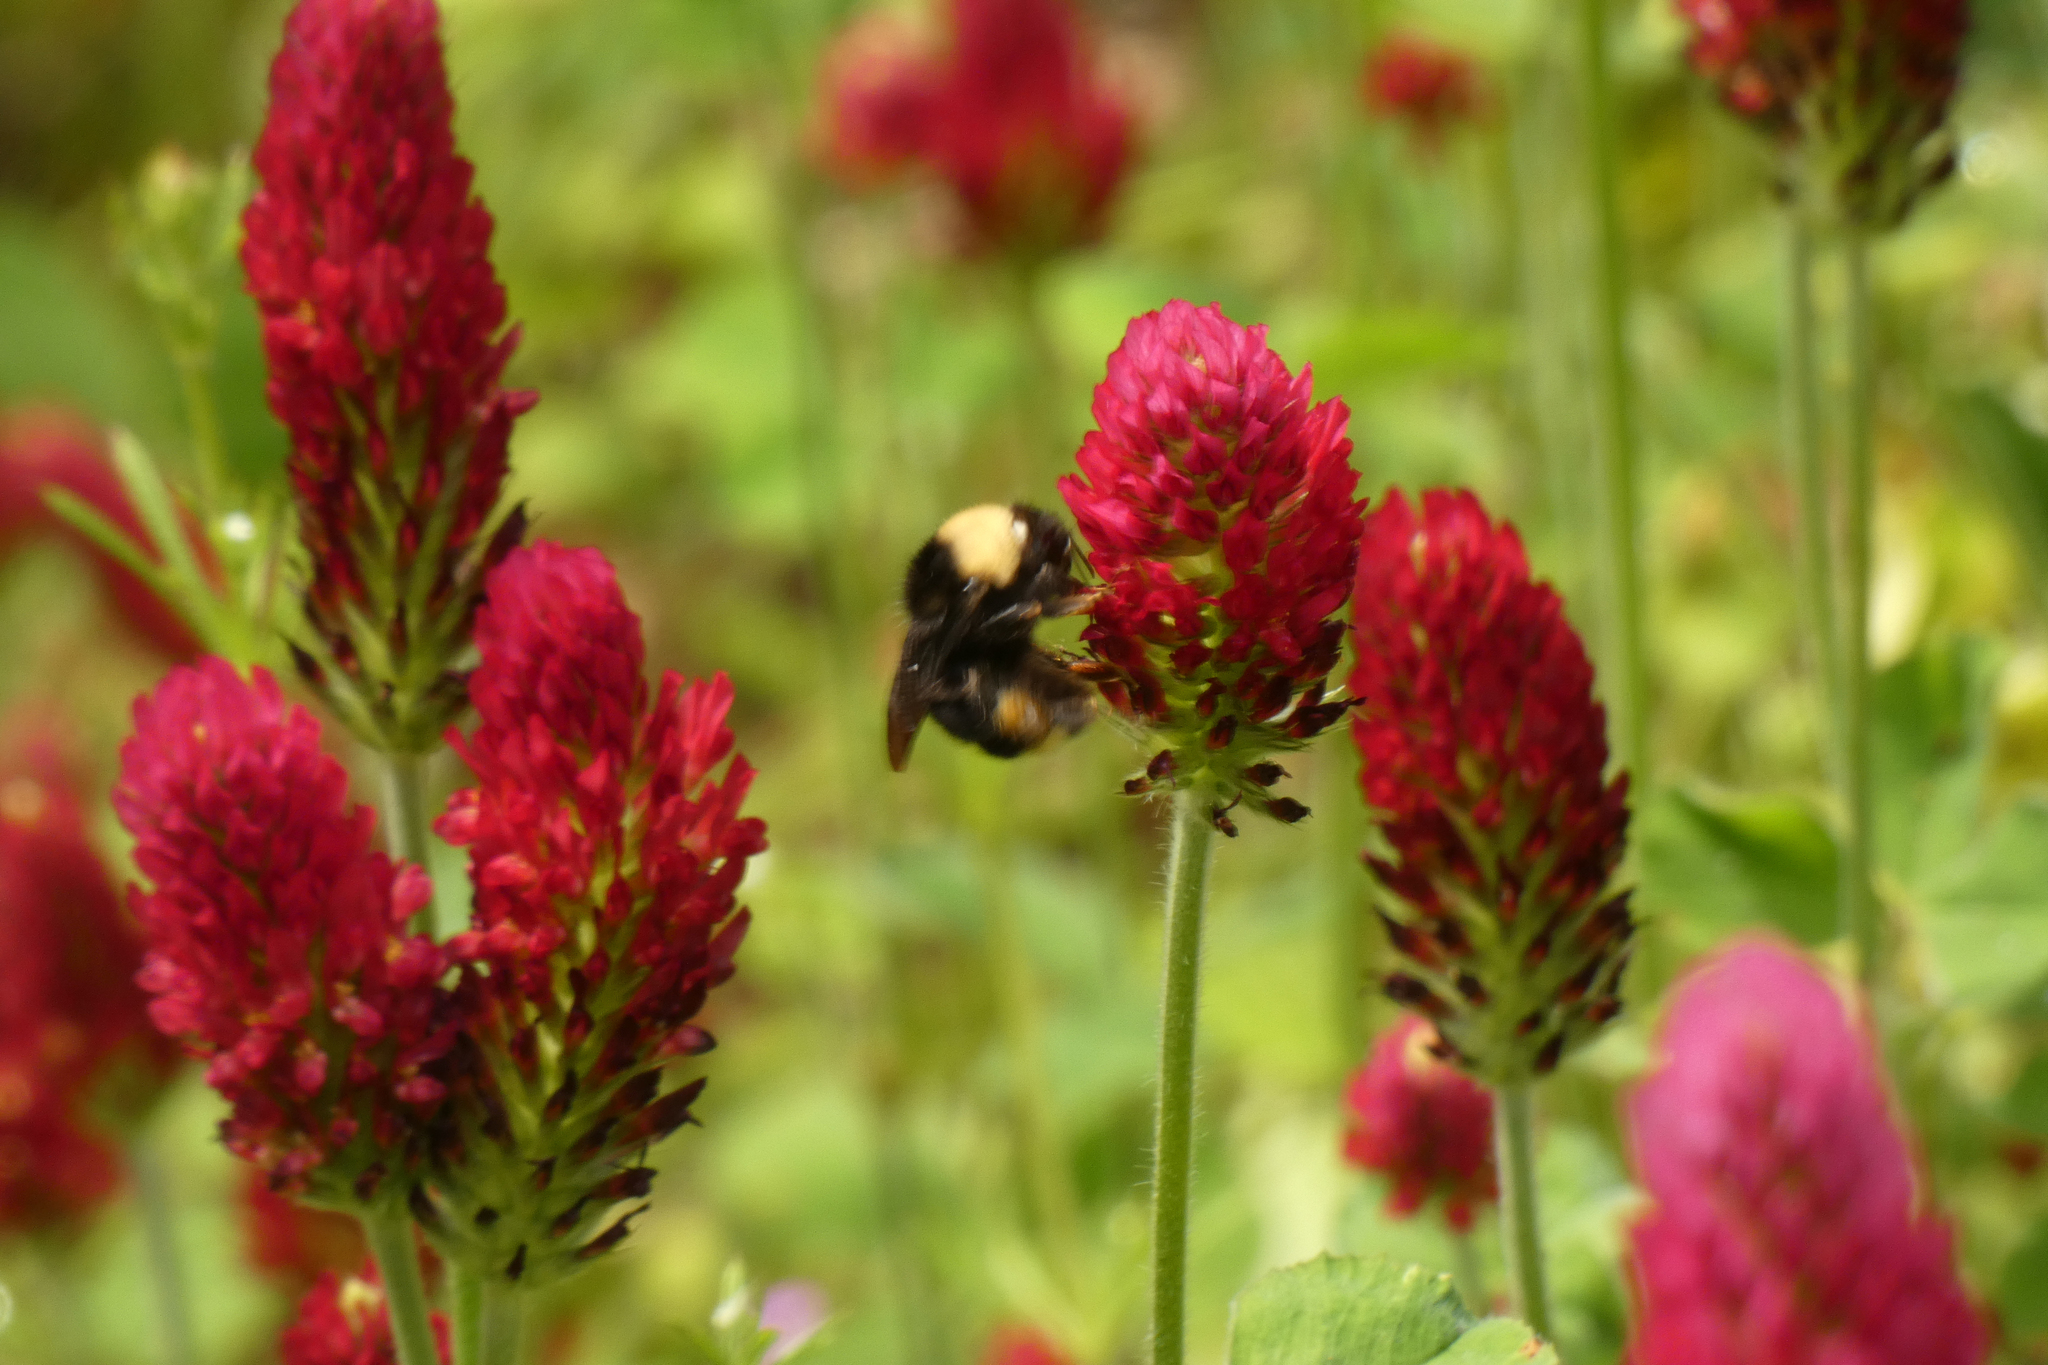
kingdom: Animalia
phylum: Arthropoda
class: Insecta
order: Hymenoptera
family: Apidae
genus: Bombus
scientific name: Bombus californicus
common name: California bumble bee
